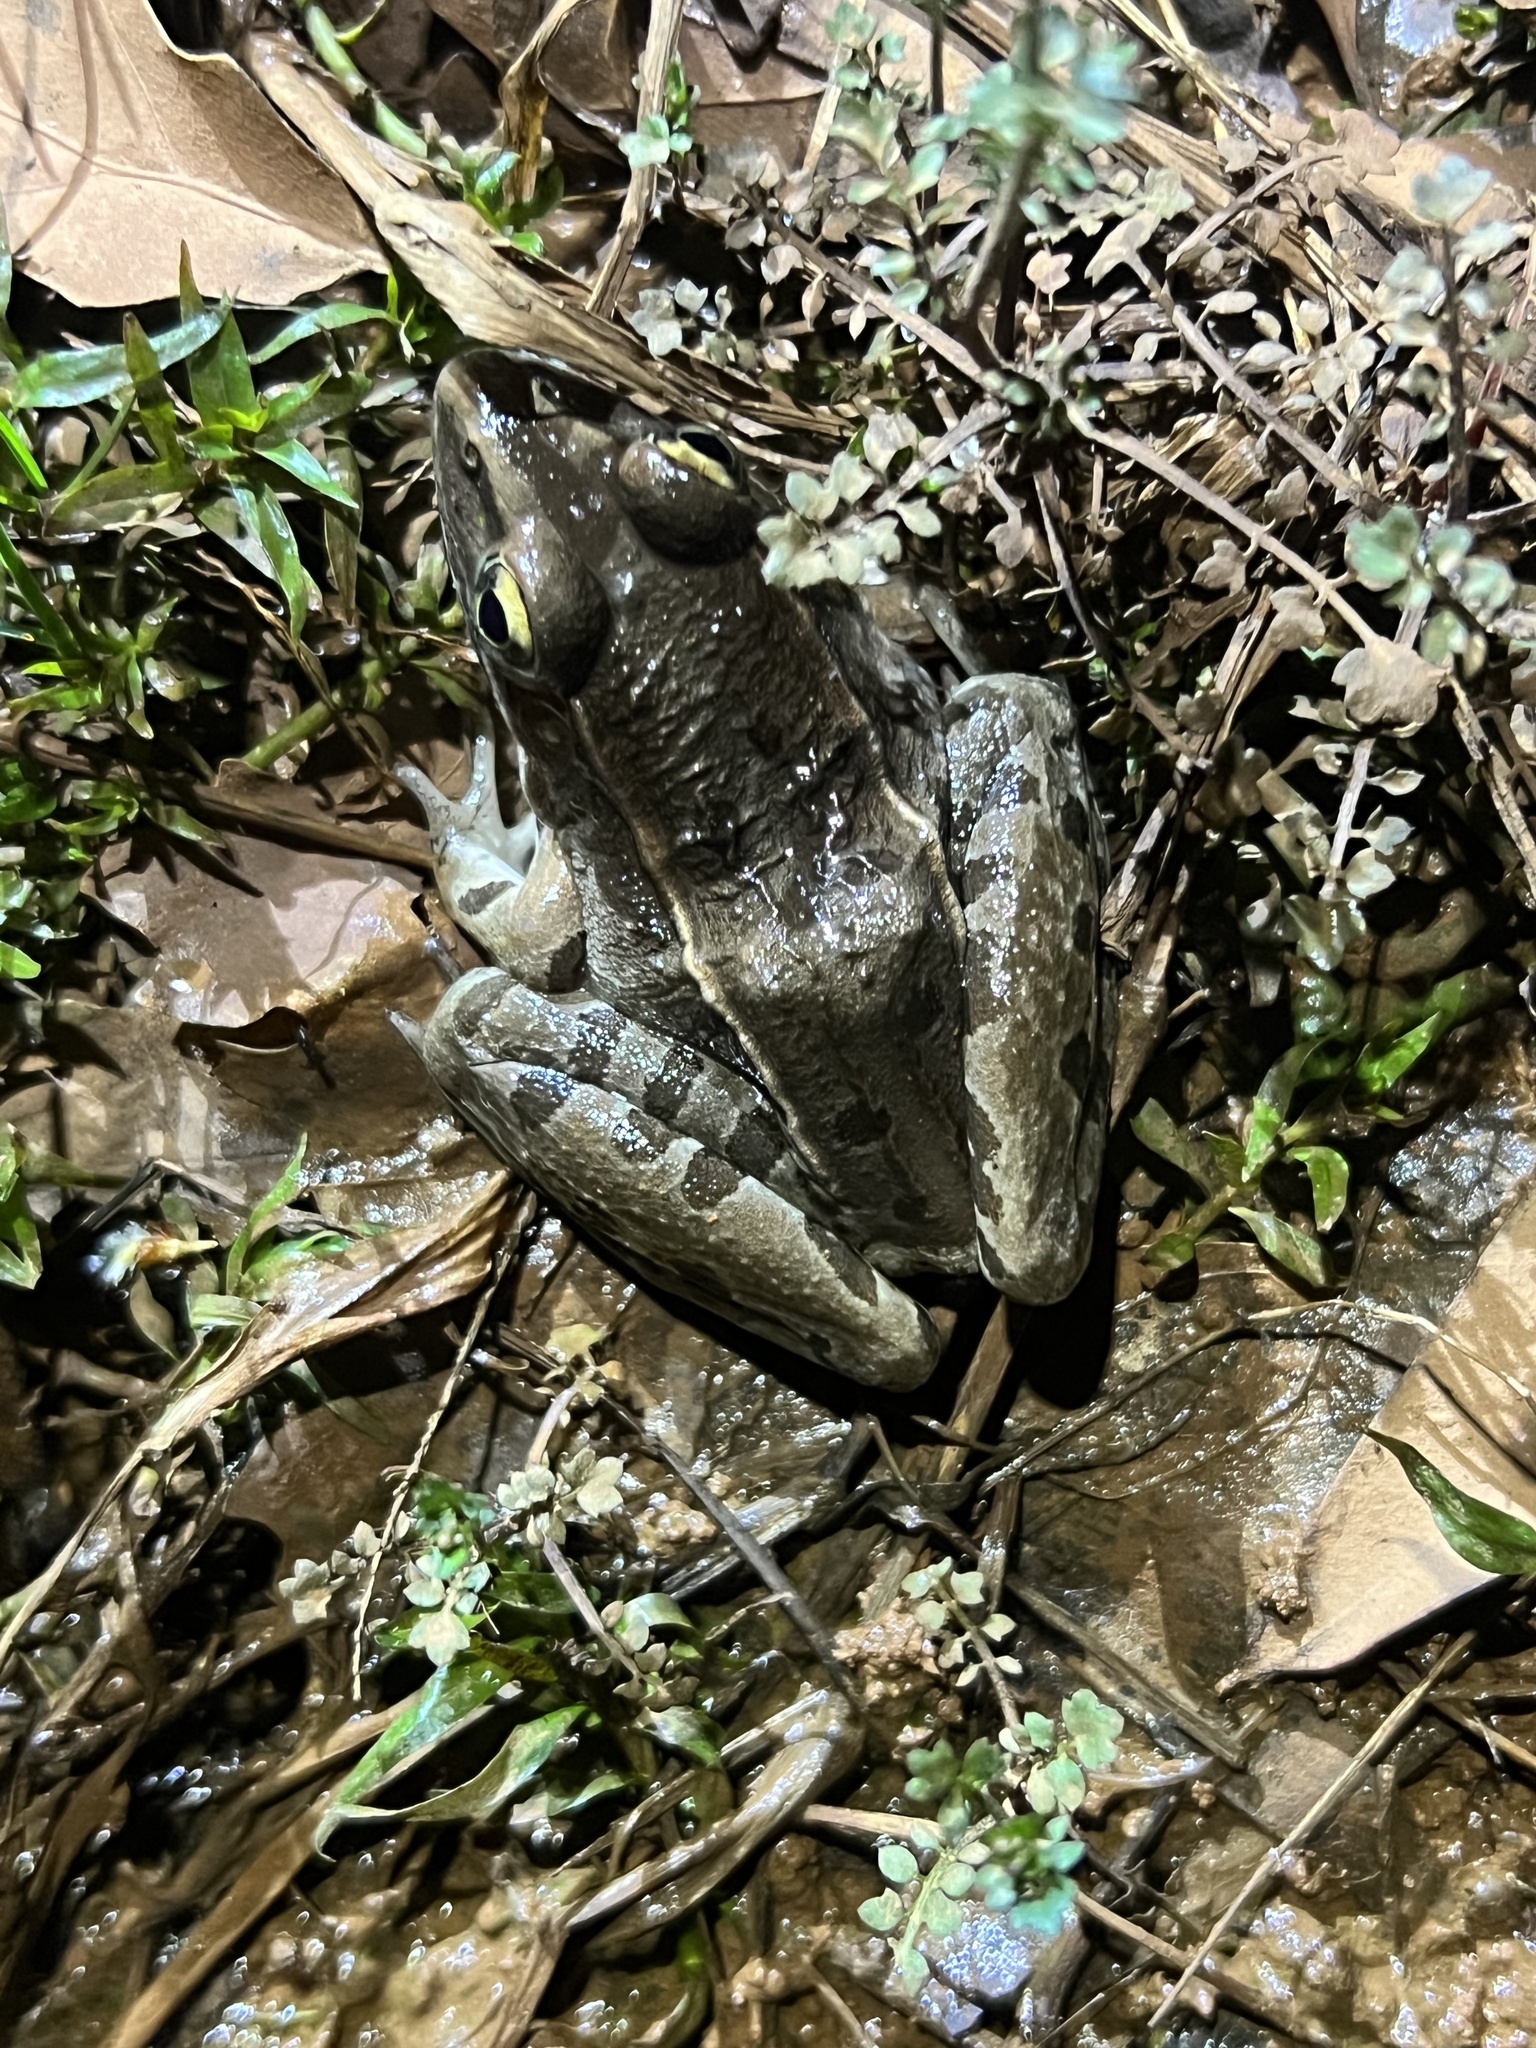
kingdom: Animalia
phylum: Chordata
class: Amphibia
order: Anura
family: Ranidae
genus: Lithobates
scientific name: Lithobates sphenocephalus
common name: Southern leopard frog
